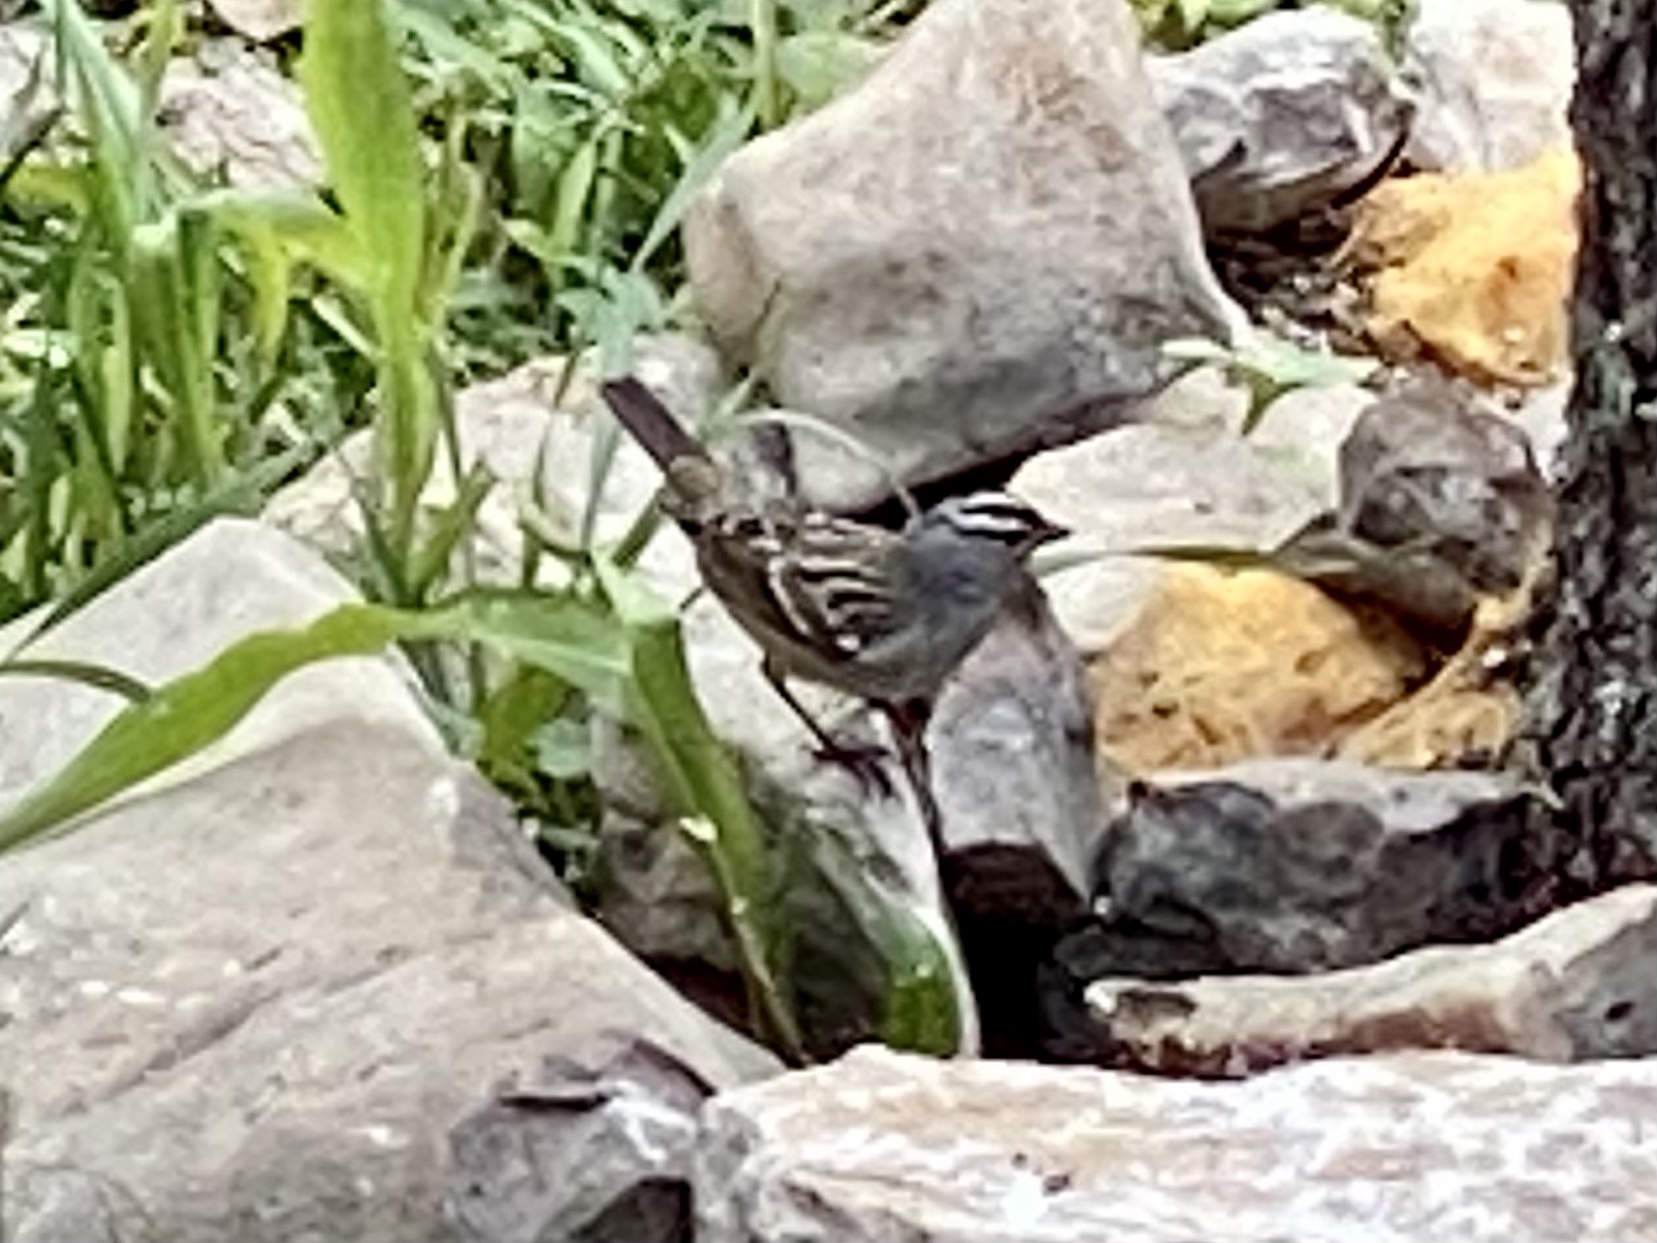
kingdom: Animalia
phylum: Chordata
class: Aves
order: Passeriformes
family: Passerellidae
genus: Zonotrichia
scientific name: Zonotrichia leucophrys
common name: White-crowned sparrow
